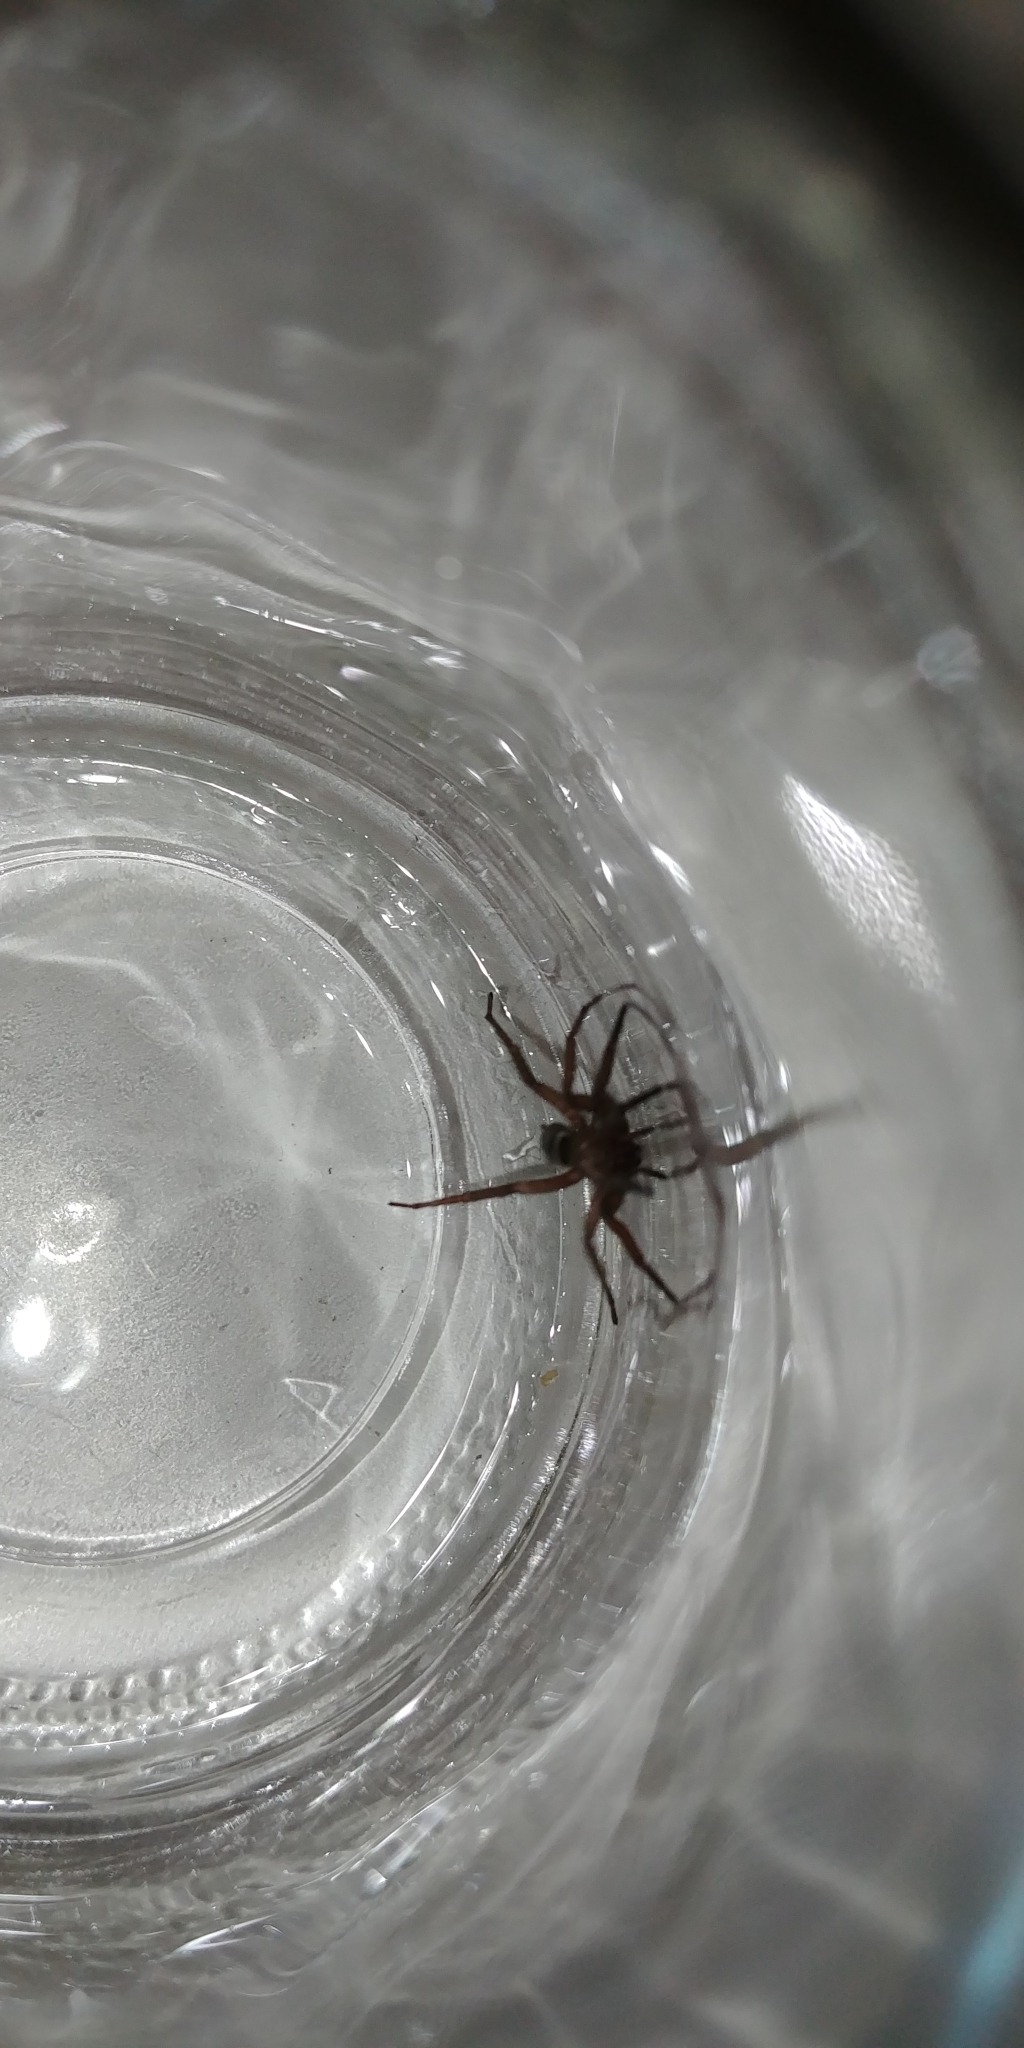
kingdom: Animalia
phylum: Arthropoda
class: Arachnida
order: Araneae
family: Gnaphosidae
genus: Scotophaeus
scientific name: Scotophaeus blackwalli
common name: Mouse spider
